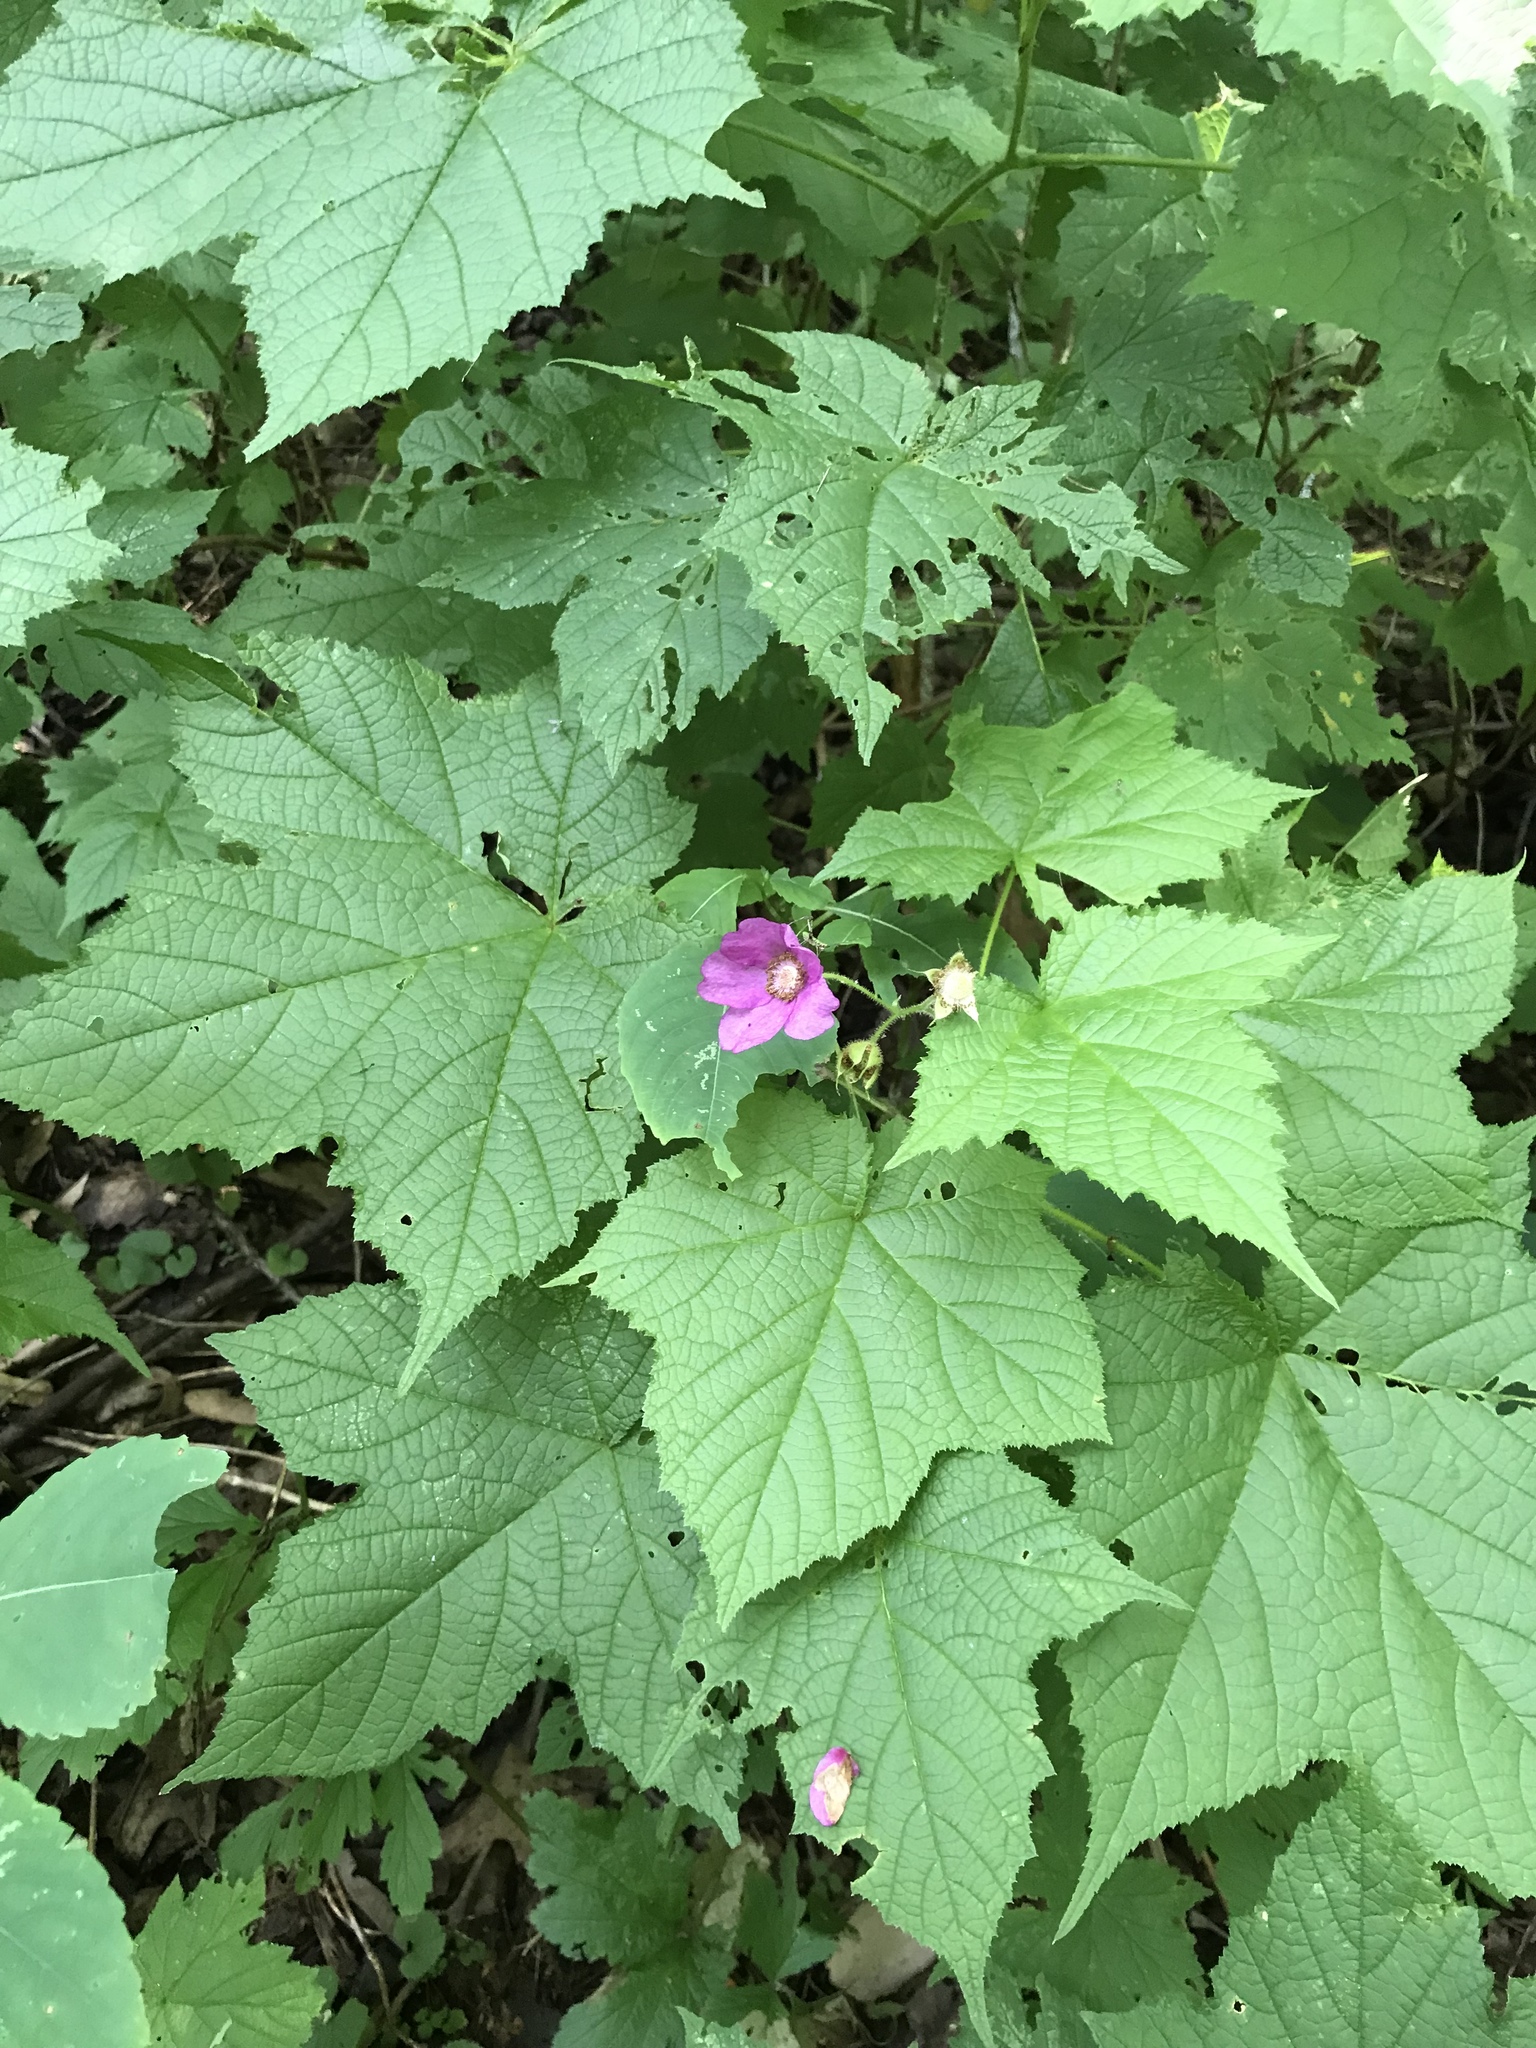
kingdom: Plantae
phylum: Tracheophyta
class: Magnoliopsida
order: Rosales
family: Rosaceae
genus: Rubus
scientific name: Rubus odoratus
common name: Purple-flowered raspberry
